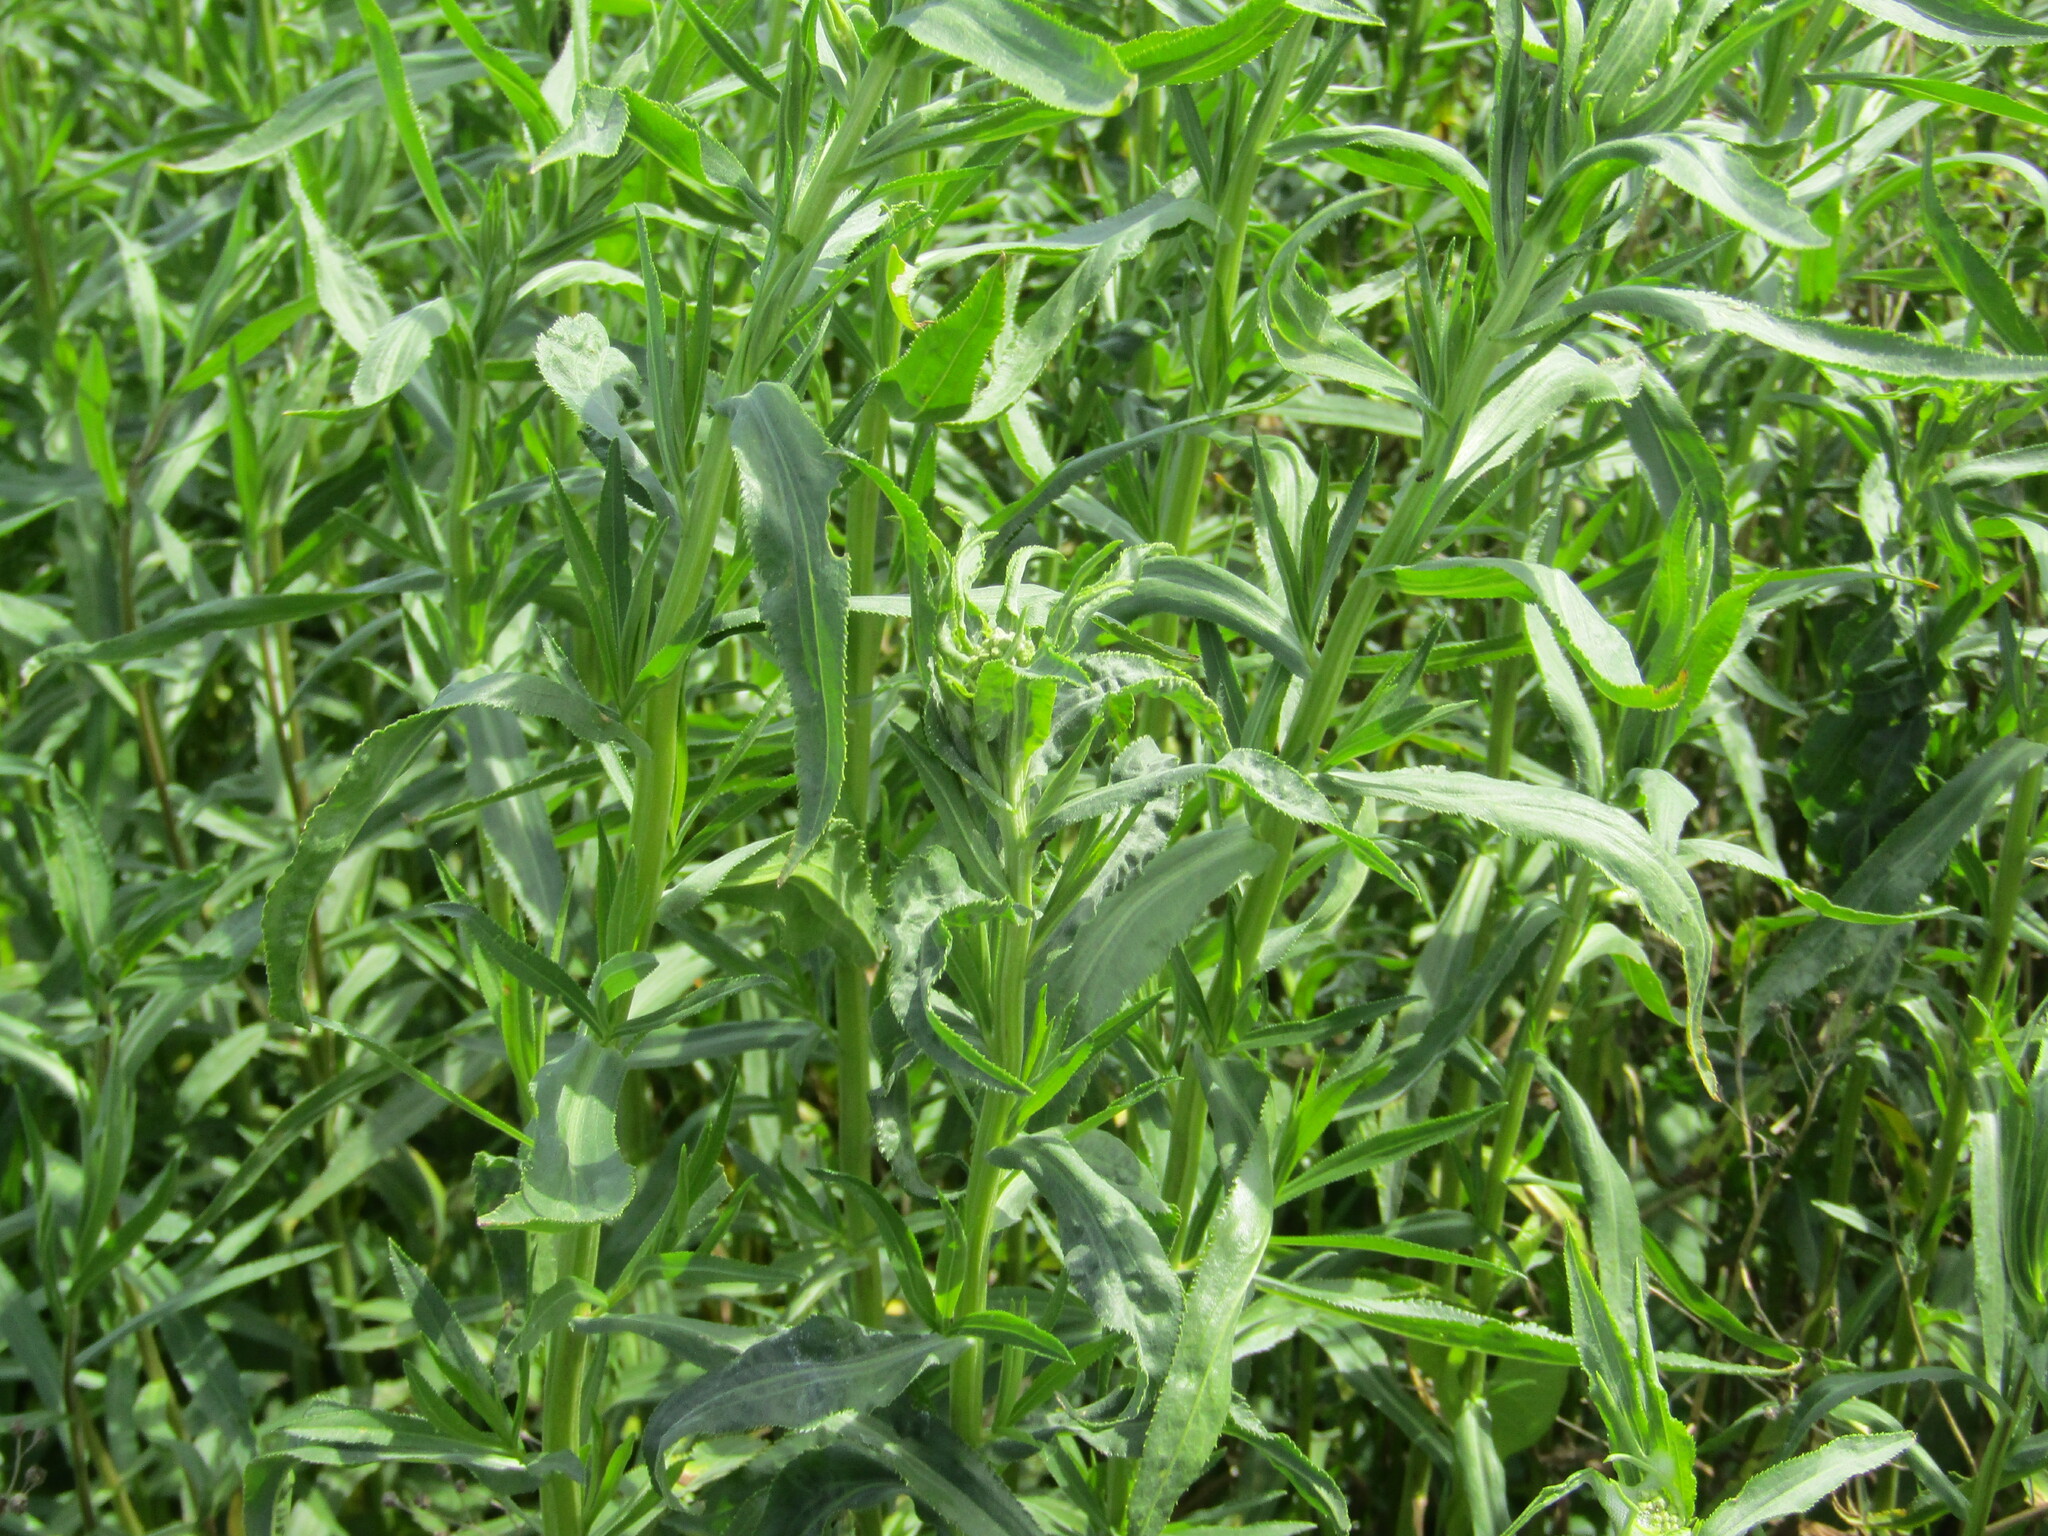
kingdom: Plantae
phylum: Tracheophyta
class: Magnoliopsida
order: Asterales
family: Asteraceae
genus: Achillea
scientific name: Achillea salicifolia
